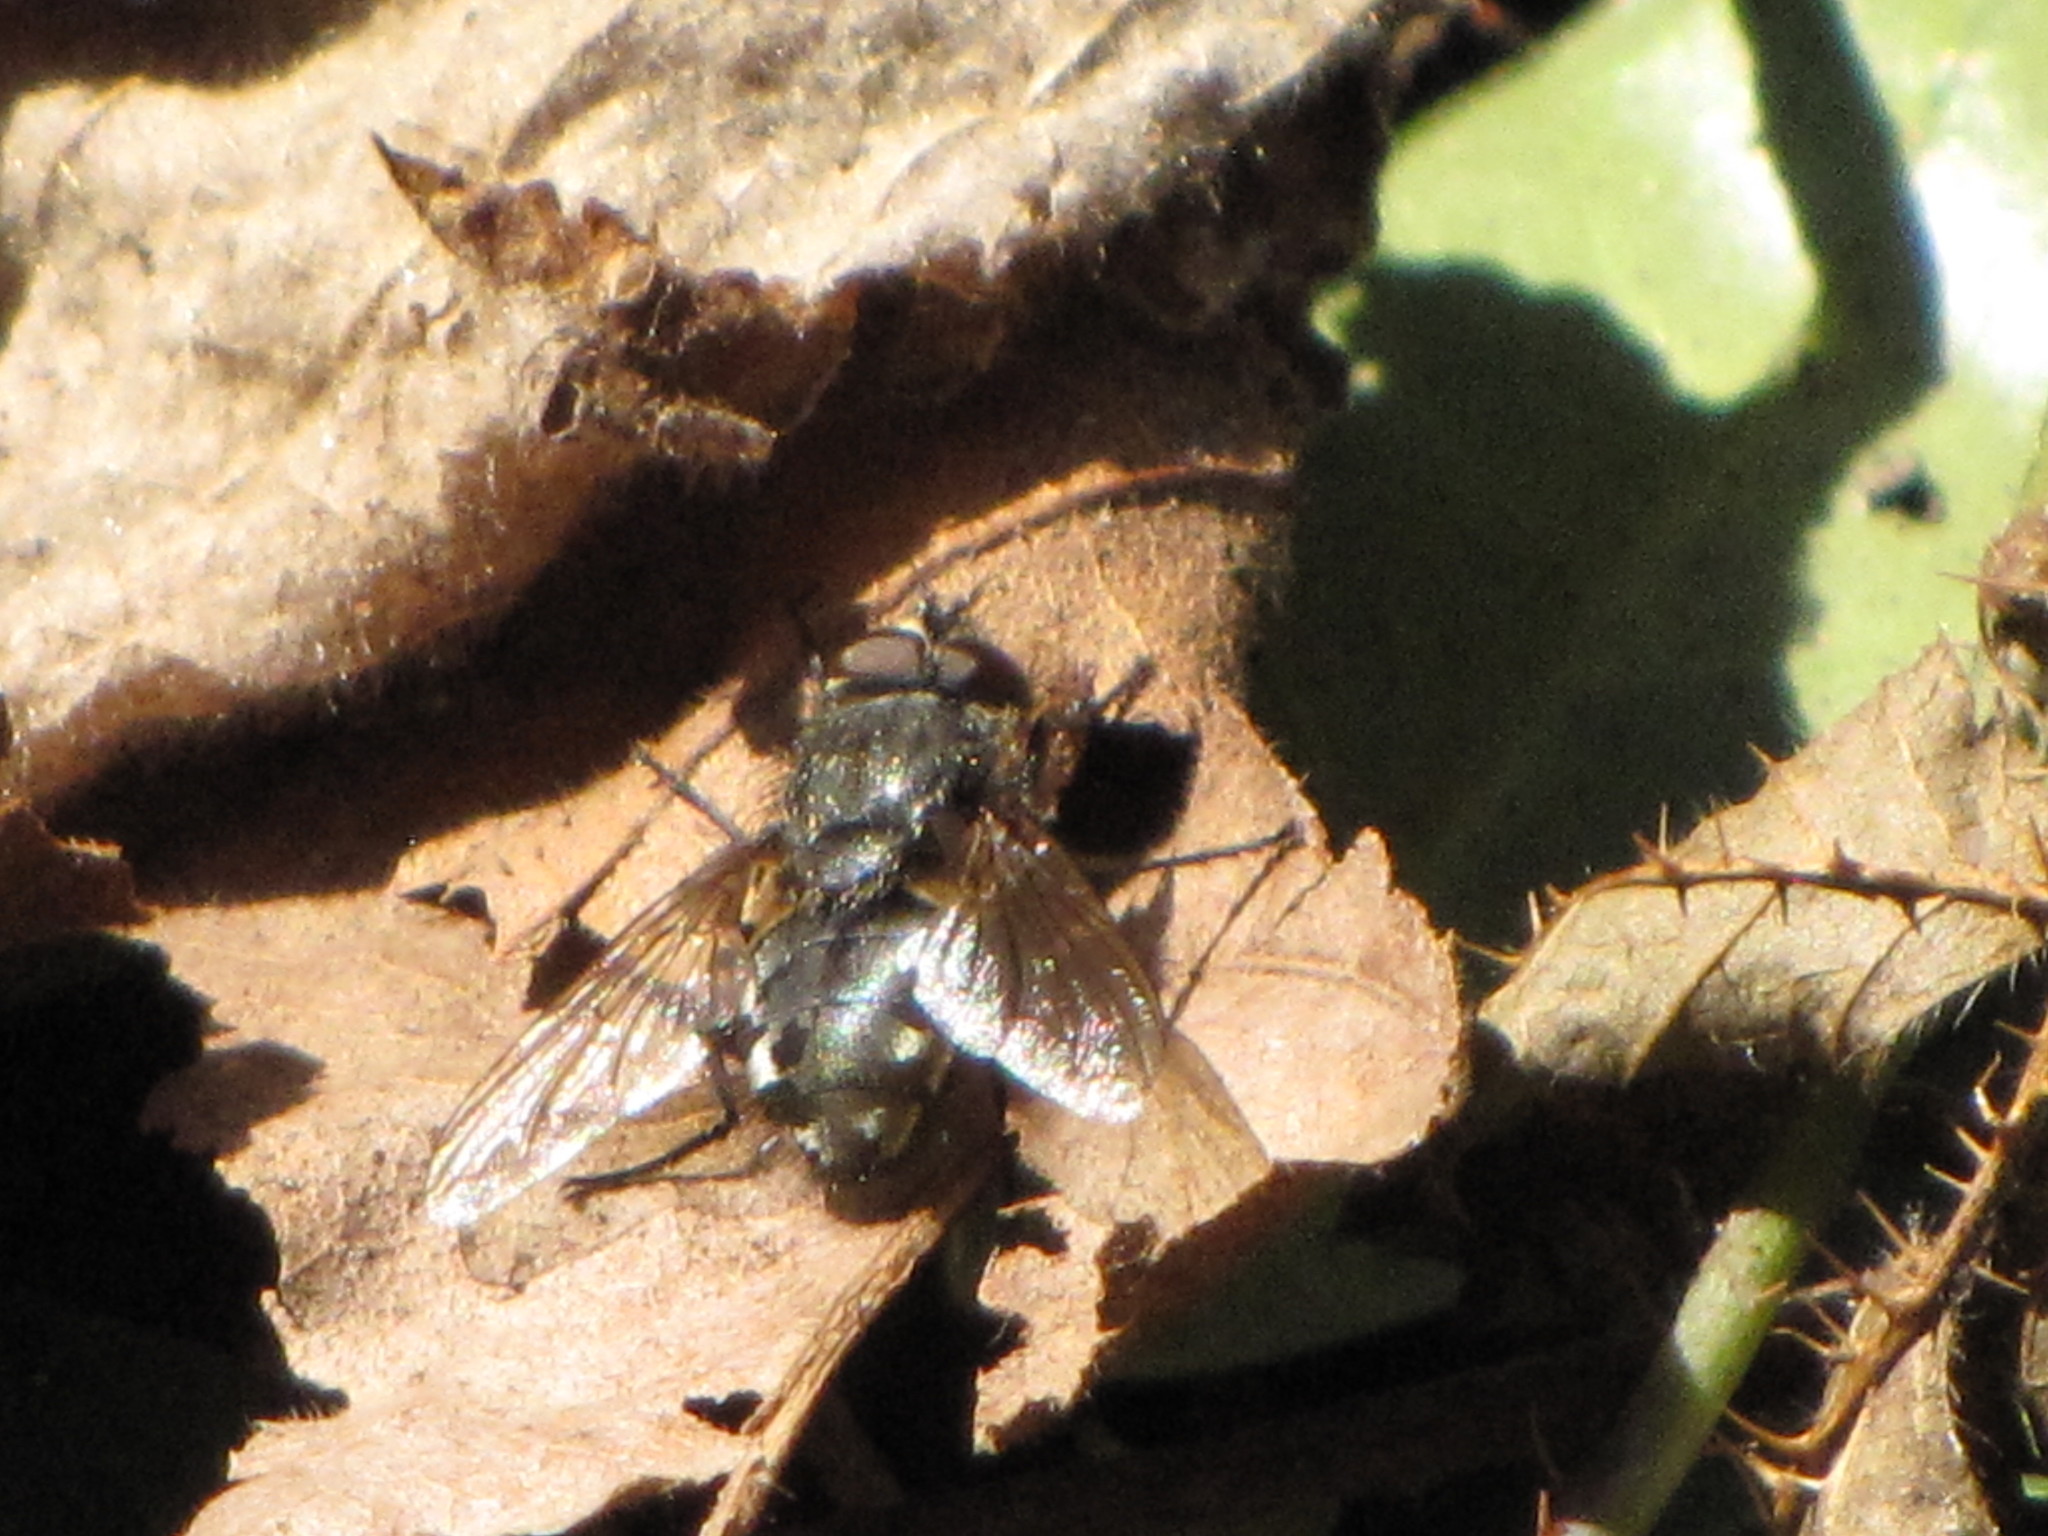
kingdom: Animalia
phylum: Arthropoda
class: Insecta
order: Diptera
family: Polleniidae
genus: Pollenia
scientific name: Pollenia
